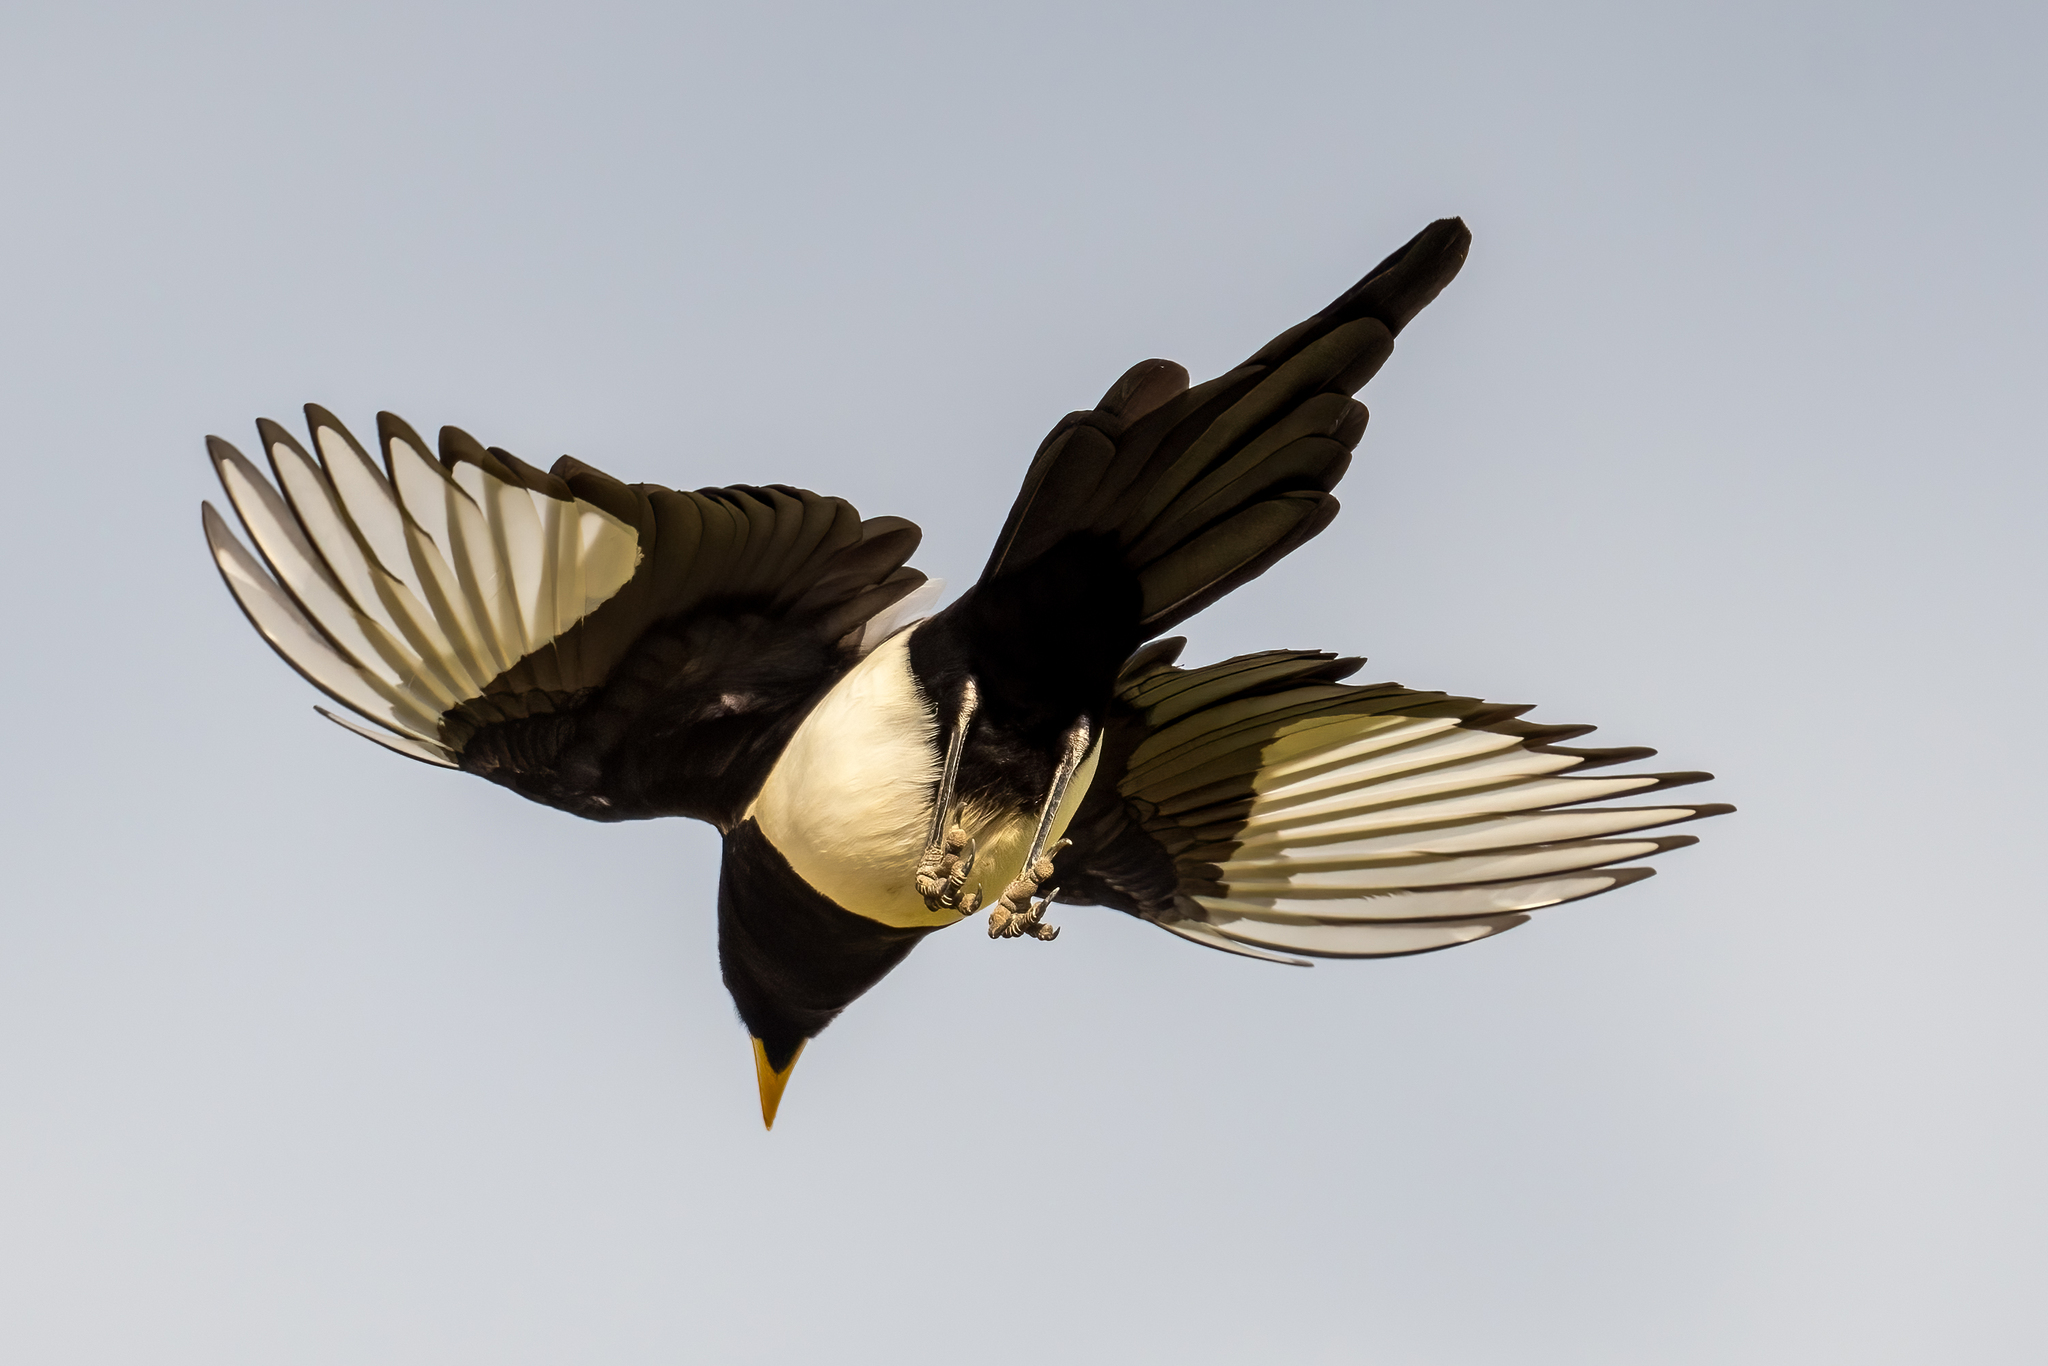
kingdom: Animalia
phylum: Chordata
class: Aves
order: Passeriformes
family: Corvidae
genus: Pica
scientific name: Pica nuttalli
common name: Yellow-billed magpie
